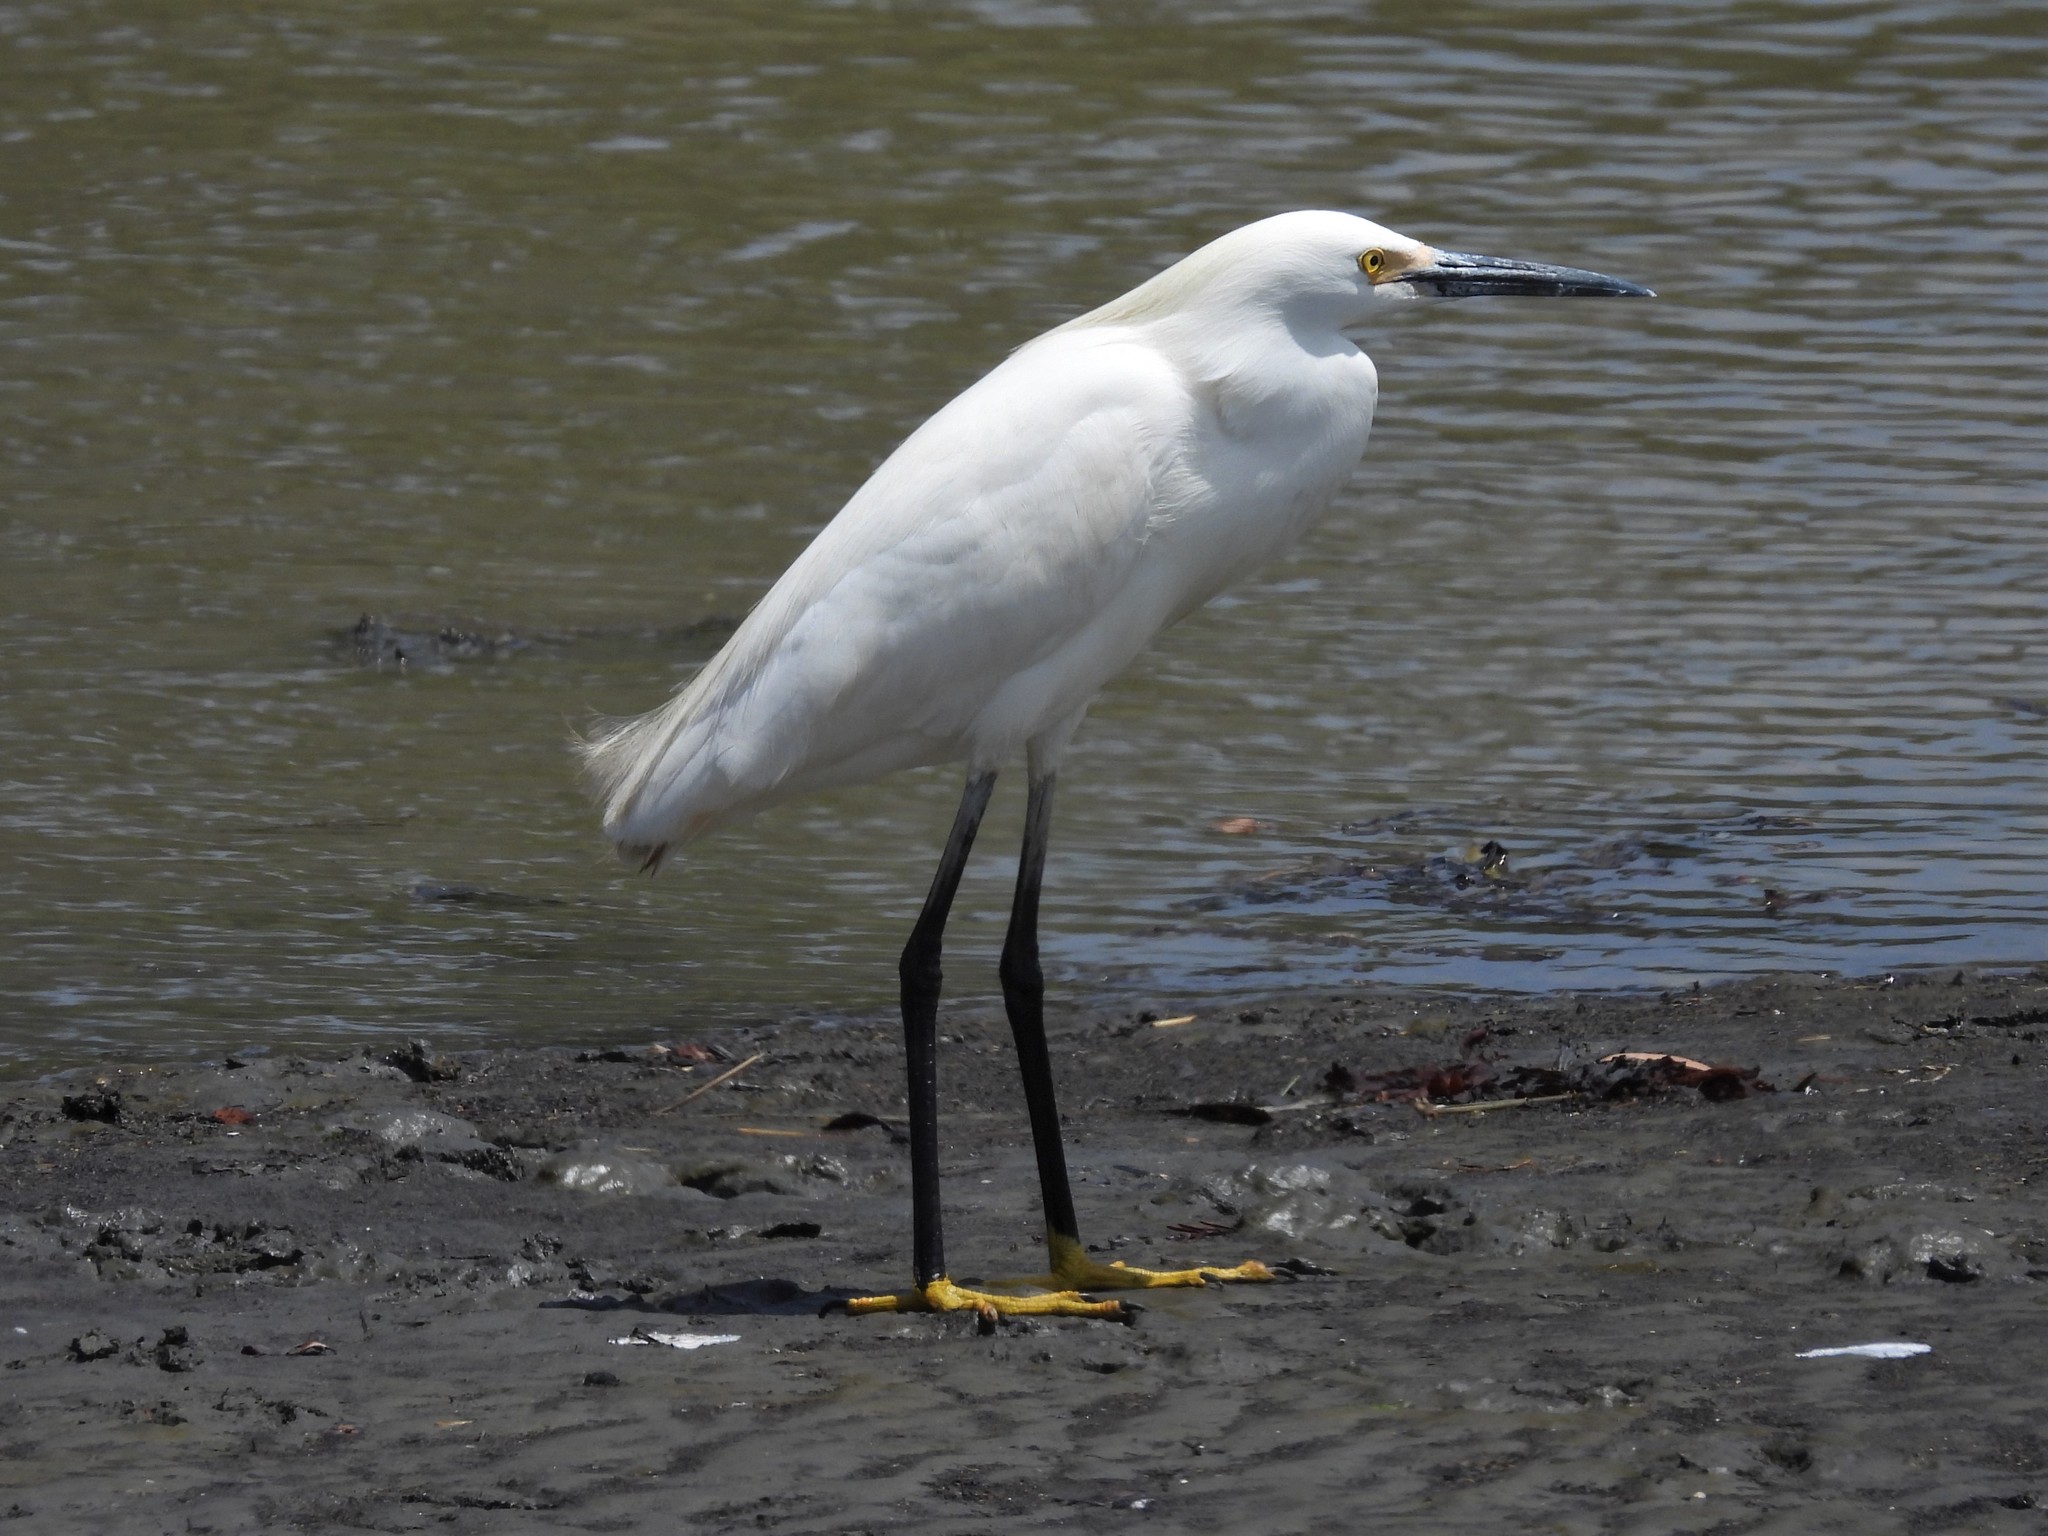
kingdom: Animalia
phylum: Chordata
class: Aves
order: Pelecaniformes
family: Ardeidae
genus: Egretta
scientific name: Egretta thula
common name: Snowy egret
